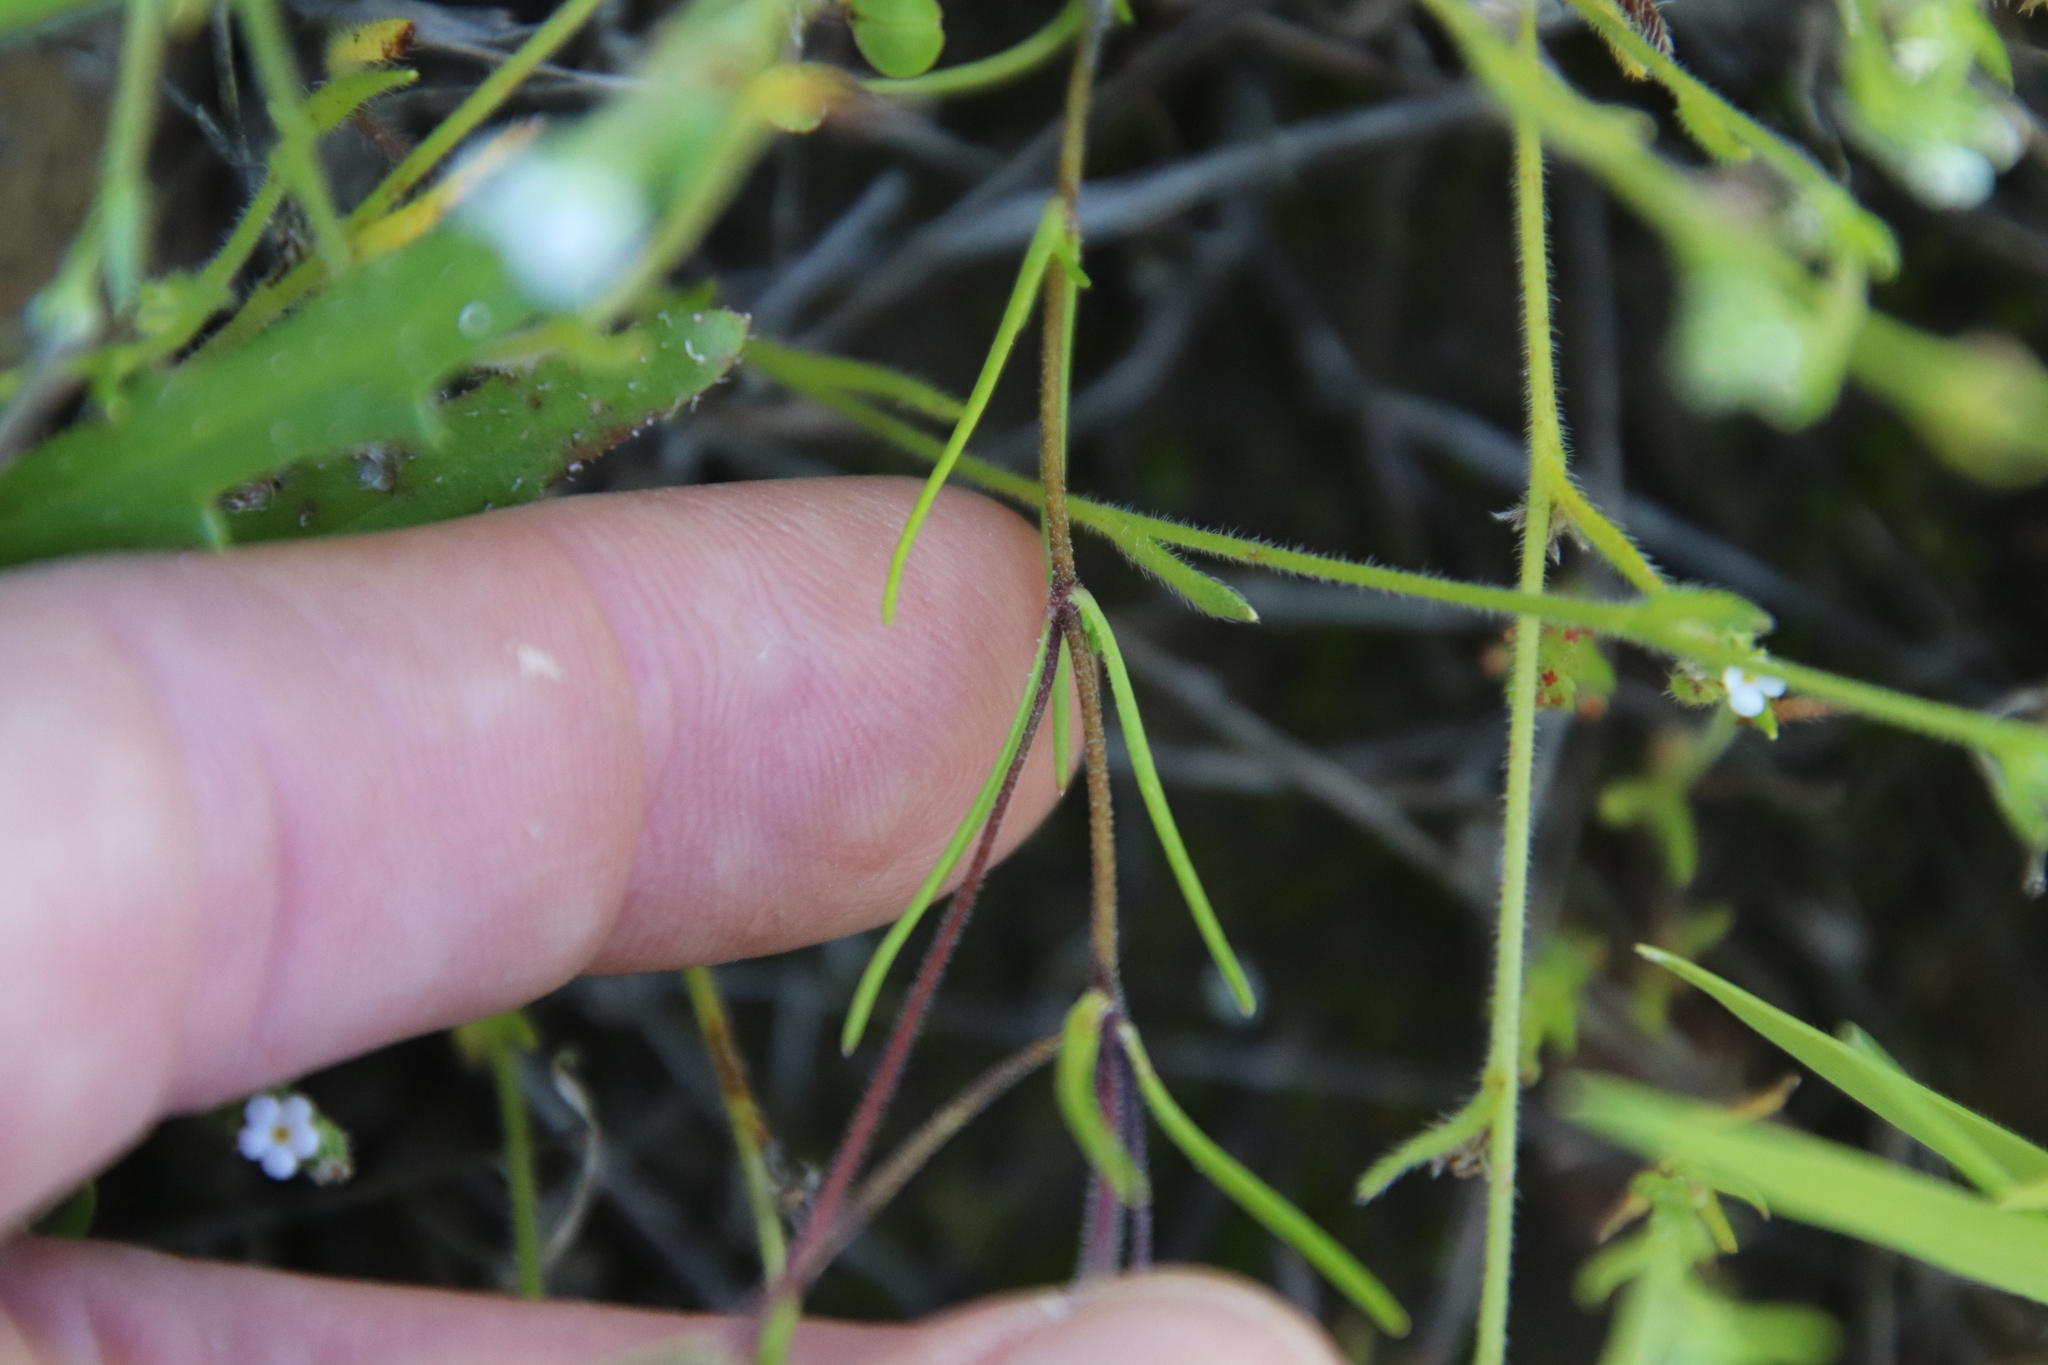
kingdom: Plantae
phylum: Tracheophyta
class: Magnoliopsida
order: Ericales
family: Polemoniaceae
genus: Linanthus
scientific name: Linanthus dianthiflorus
